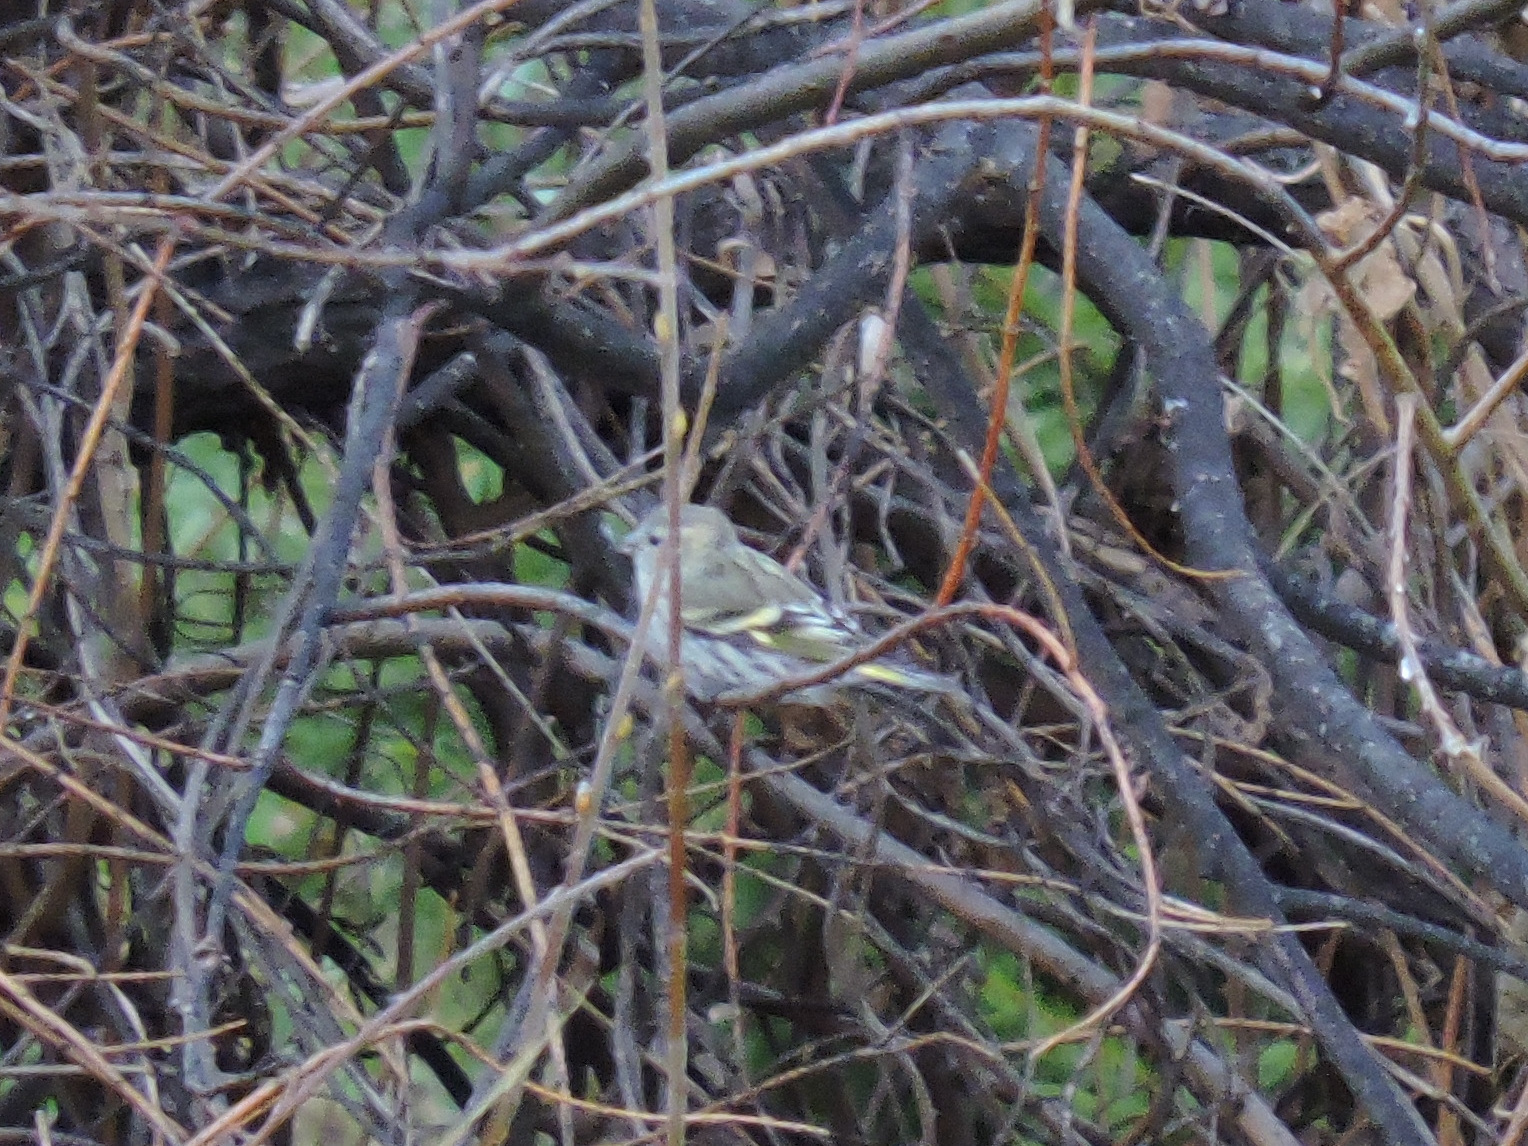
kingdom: Animalia
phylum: Chordata
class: Aves
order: Passeriformes
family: Fringillidae
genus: Spinus
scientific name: Spinus spinus
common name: Eurasian siskin
